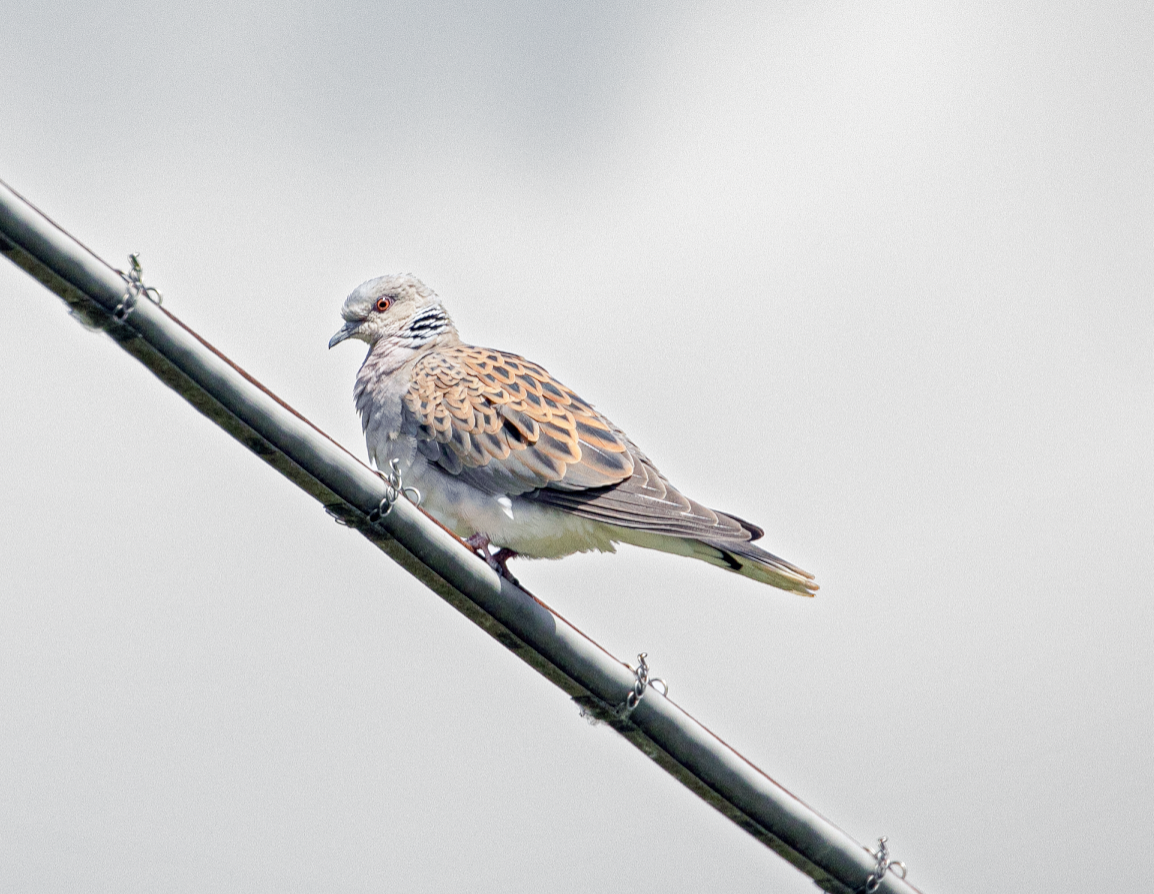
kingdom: Animalia
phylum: Chordata
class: Aves
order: Columbiformes
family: Columbidae
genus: Streptopelia
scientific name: Streptopelia turtur
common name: European turtle dove
